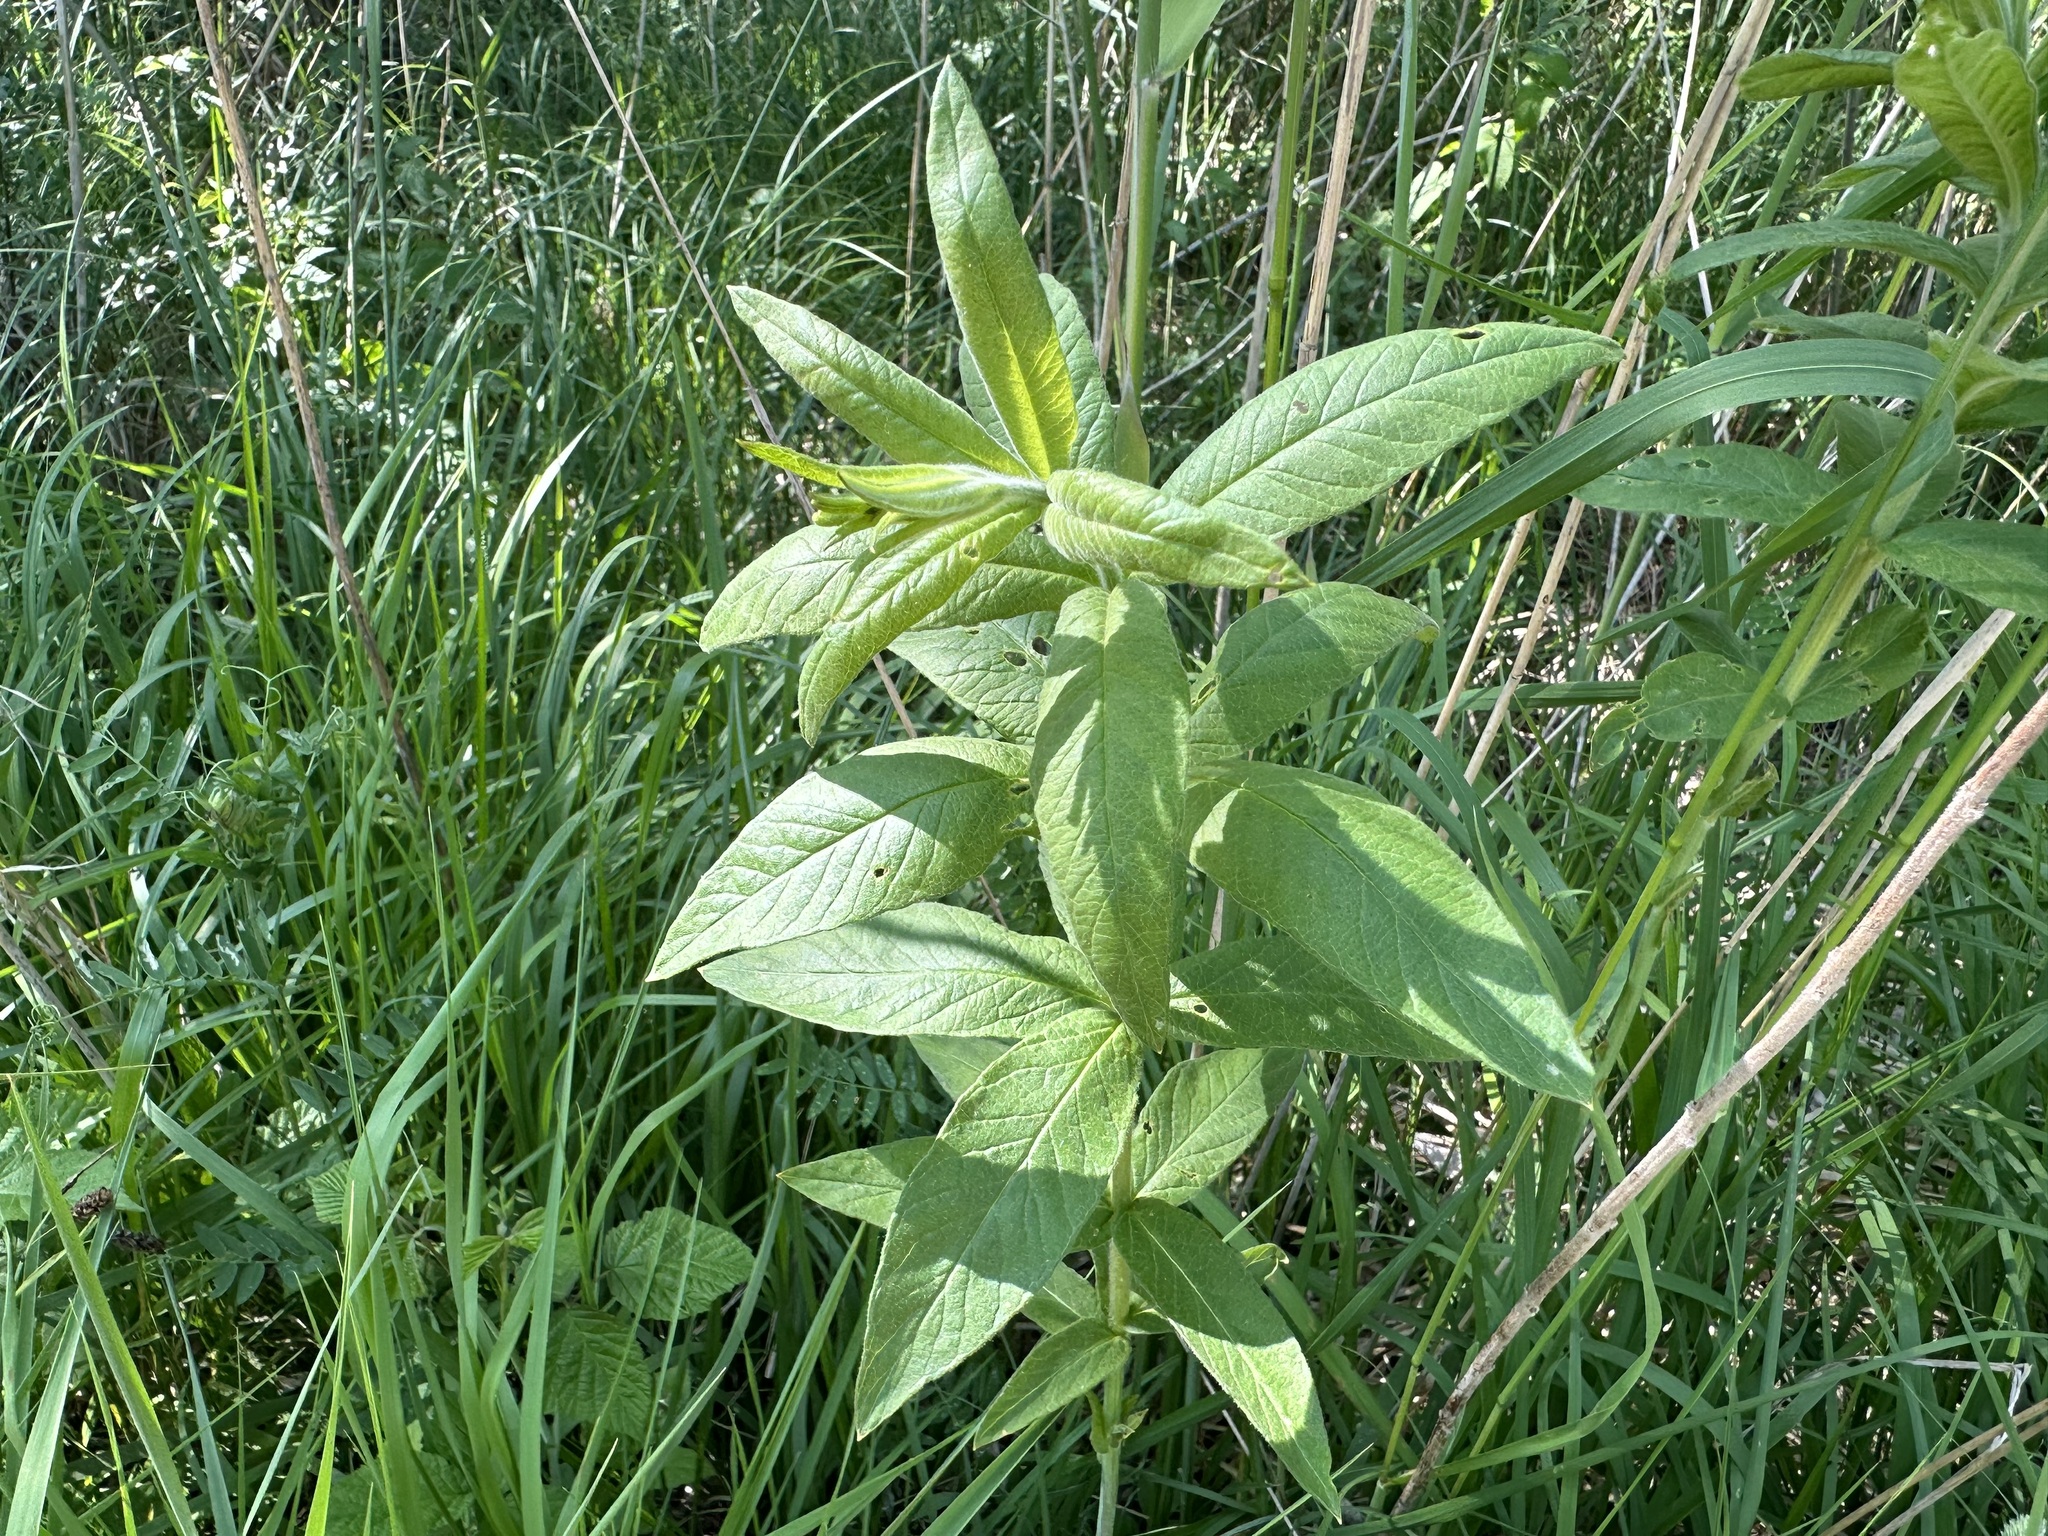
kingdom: Plantae
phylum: Tracheophyta
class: Magnoliopsida
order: Ericales
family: Primulaceae
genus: Lysimachia
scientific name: Lysimachia vulgaris
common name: Yellow loosestrife
